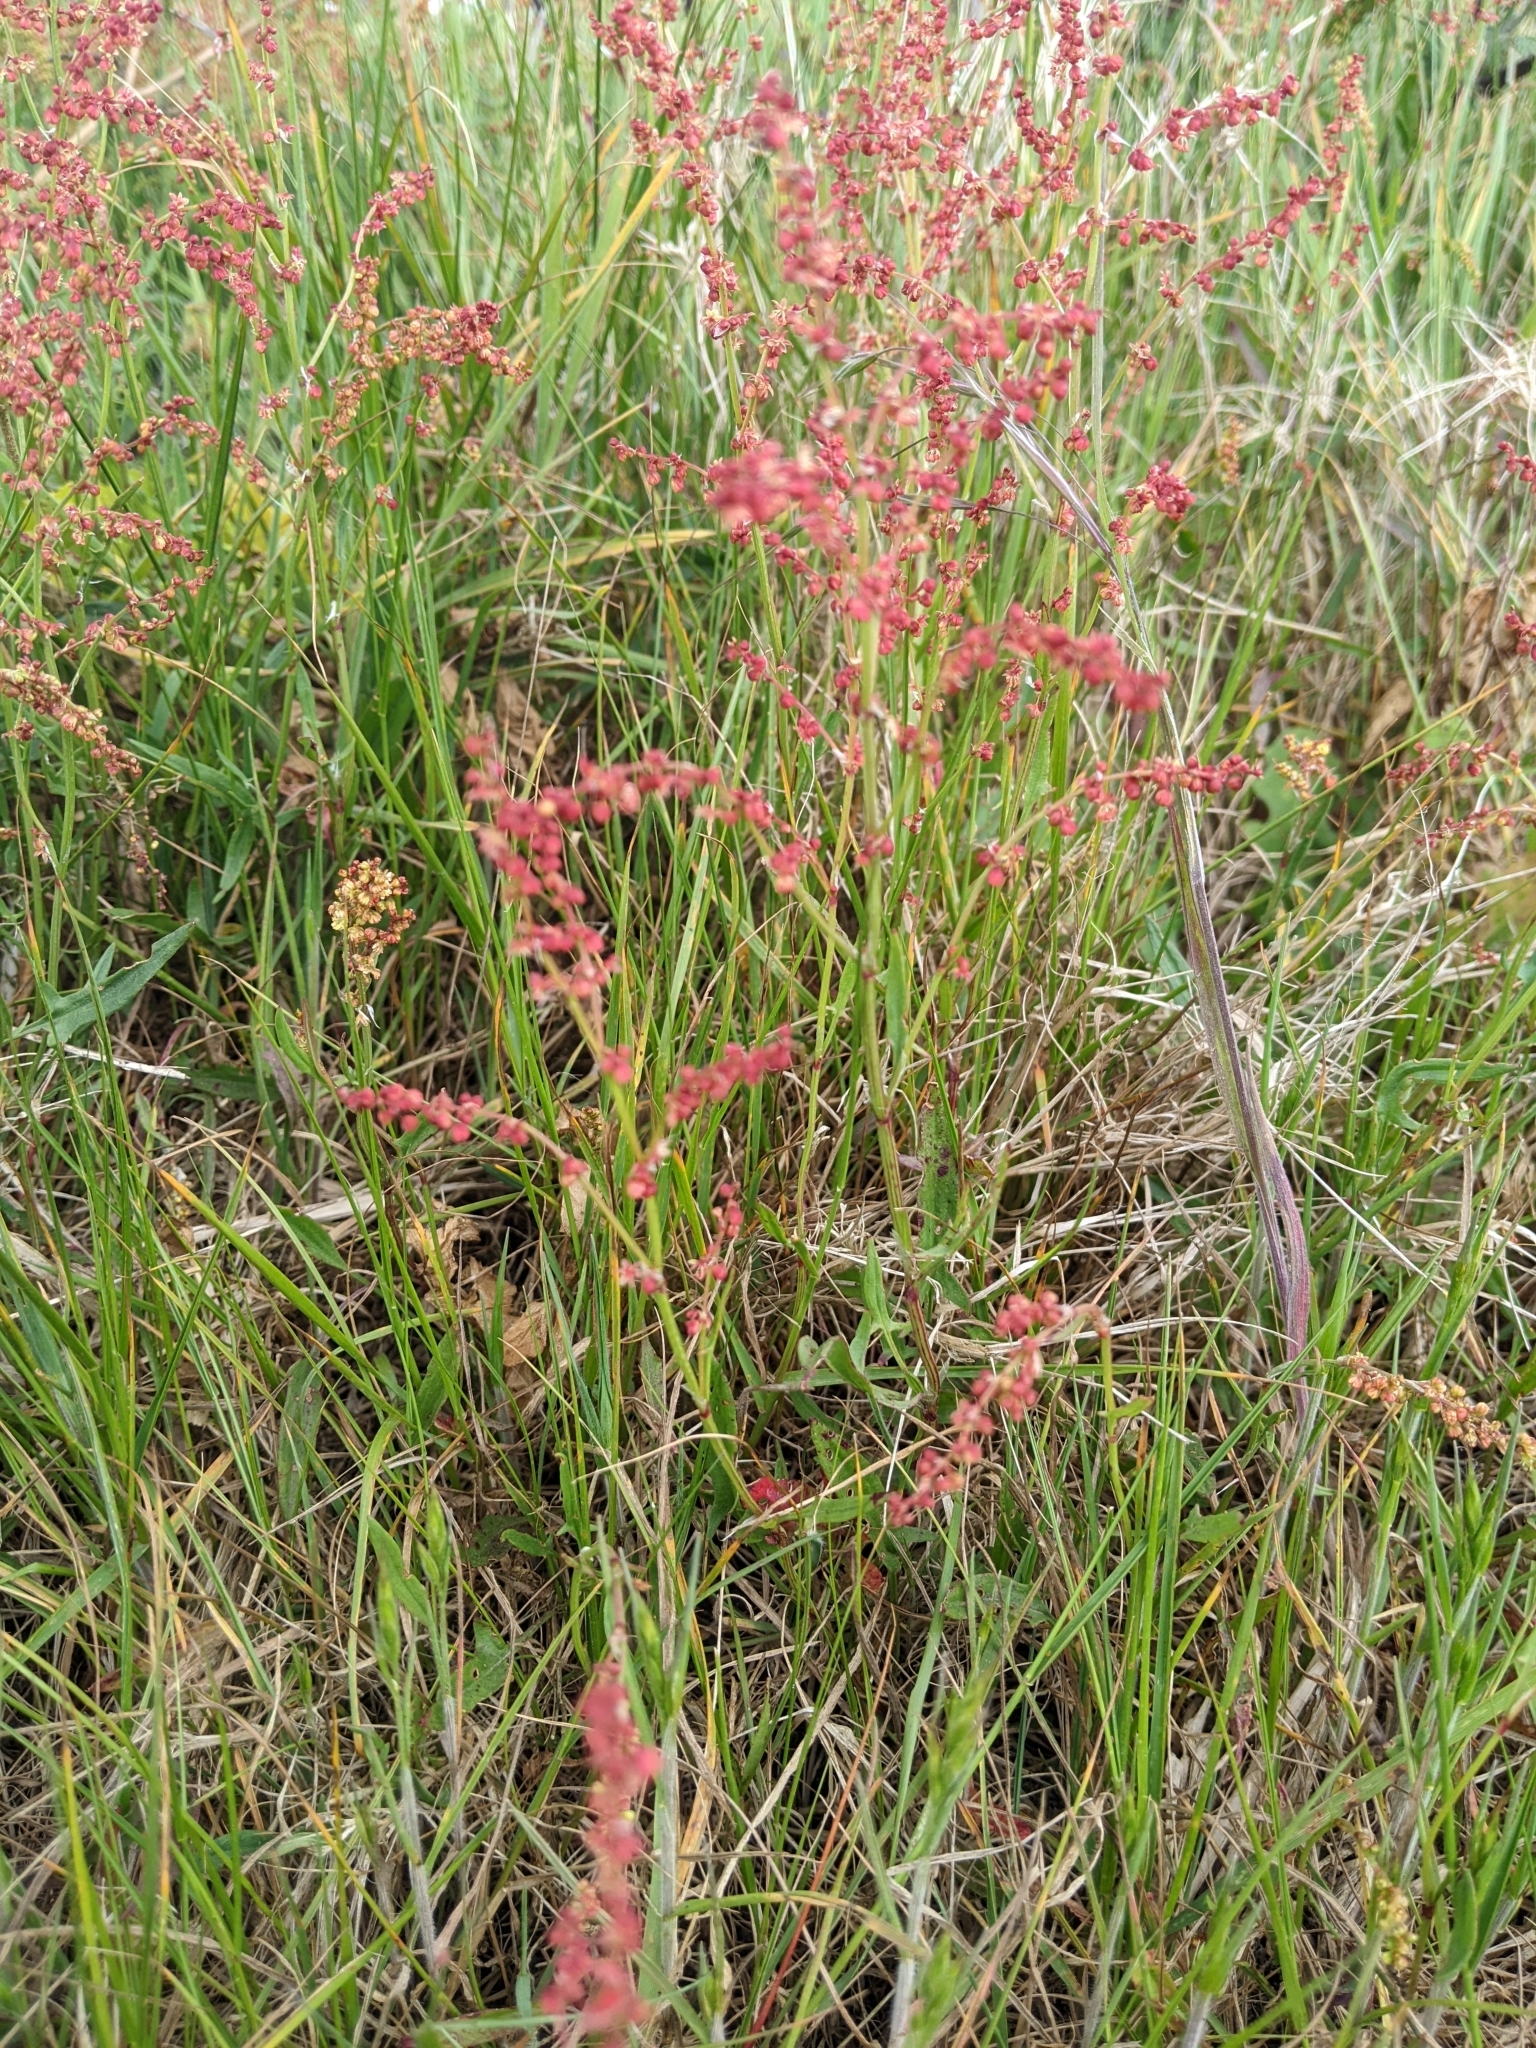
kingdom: Plantae
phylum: Tracheophyta
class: Magnoliopsida
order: Caryophyllales
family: Polygonaceae
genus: Rumex
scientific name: Rumex acetosella
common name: Common sheep sorrel
